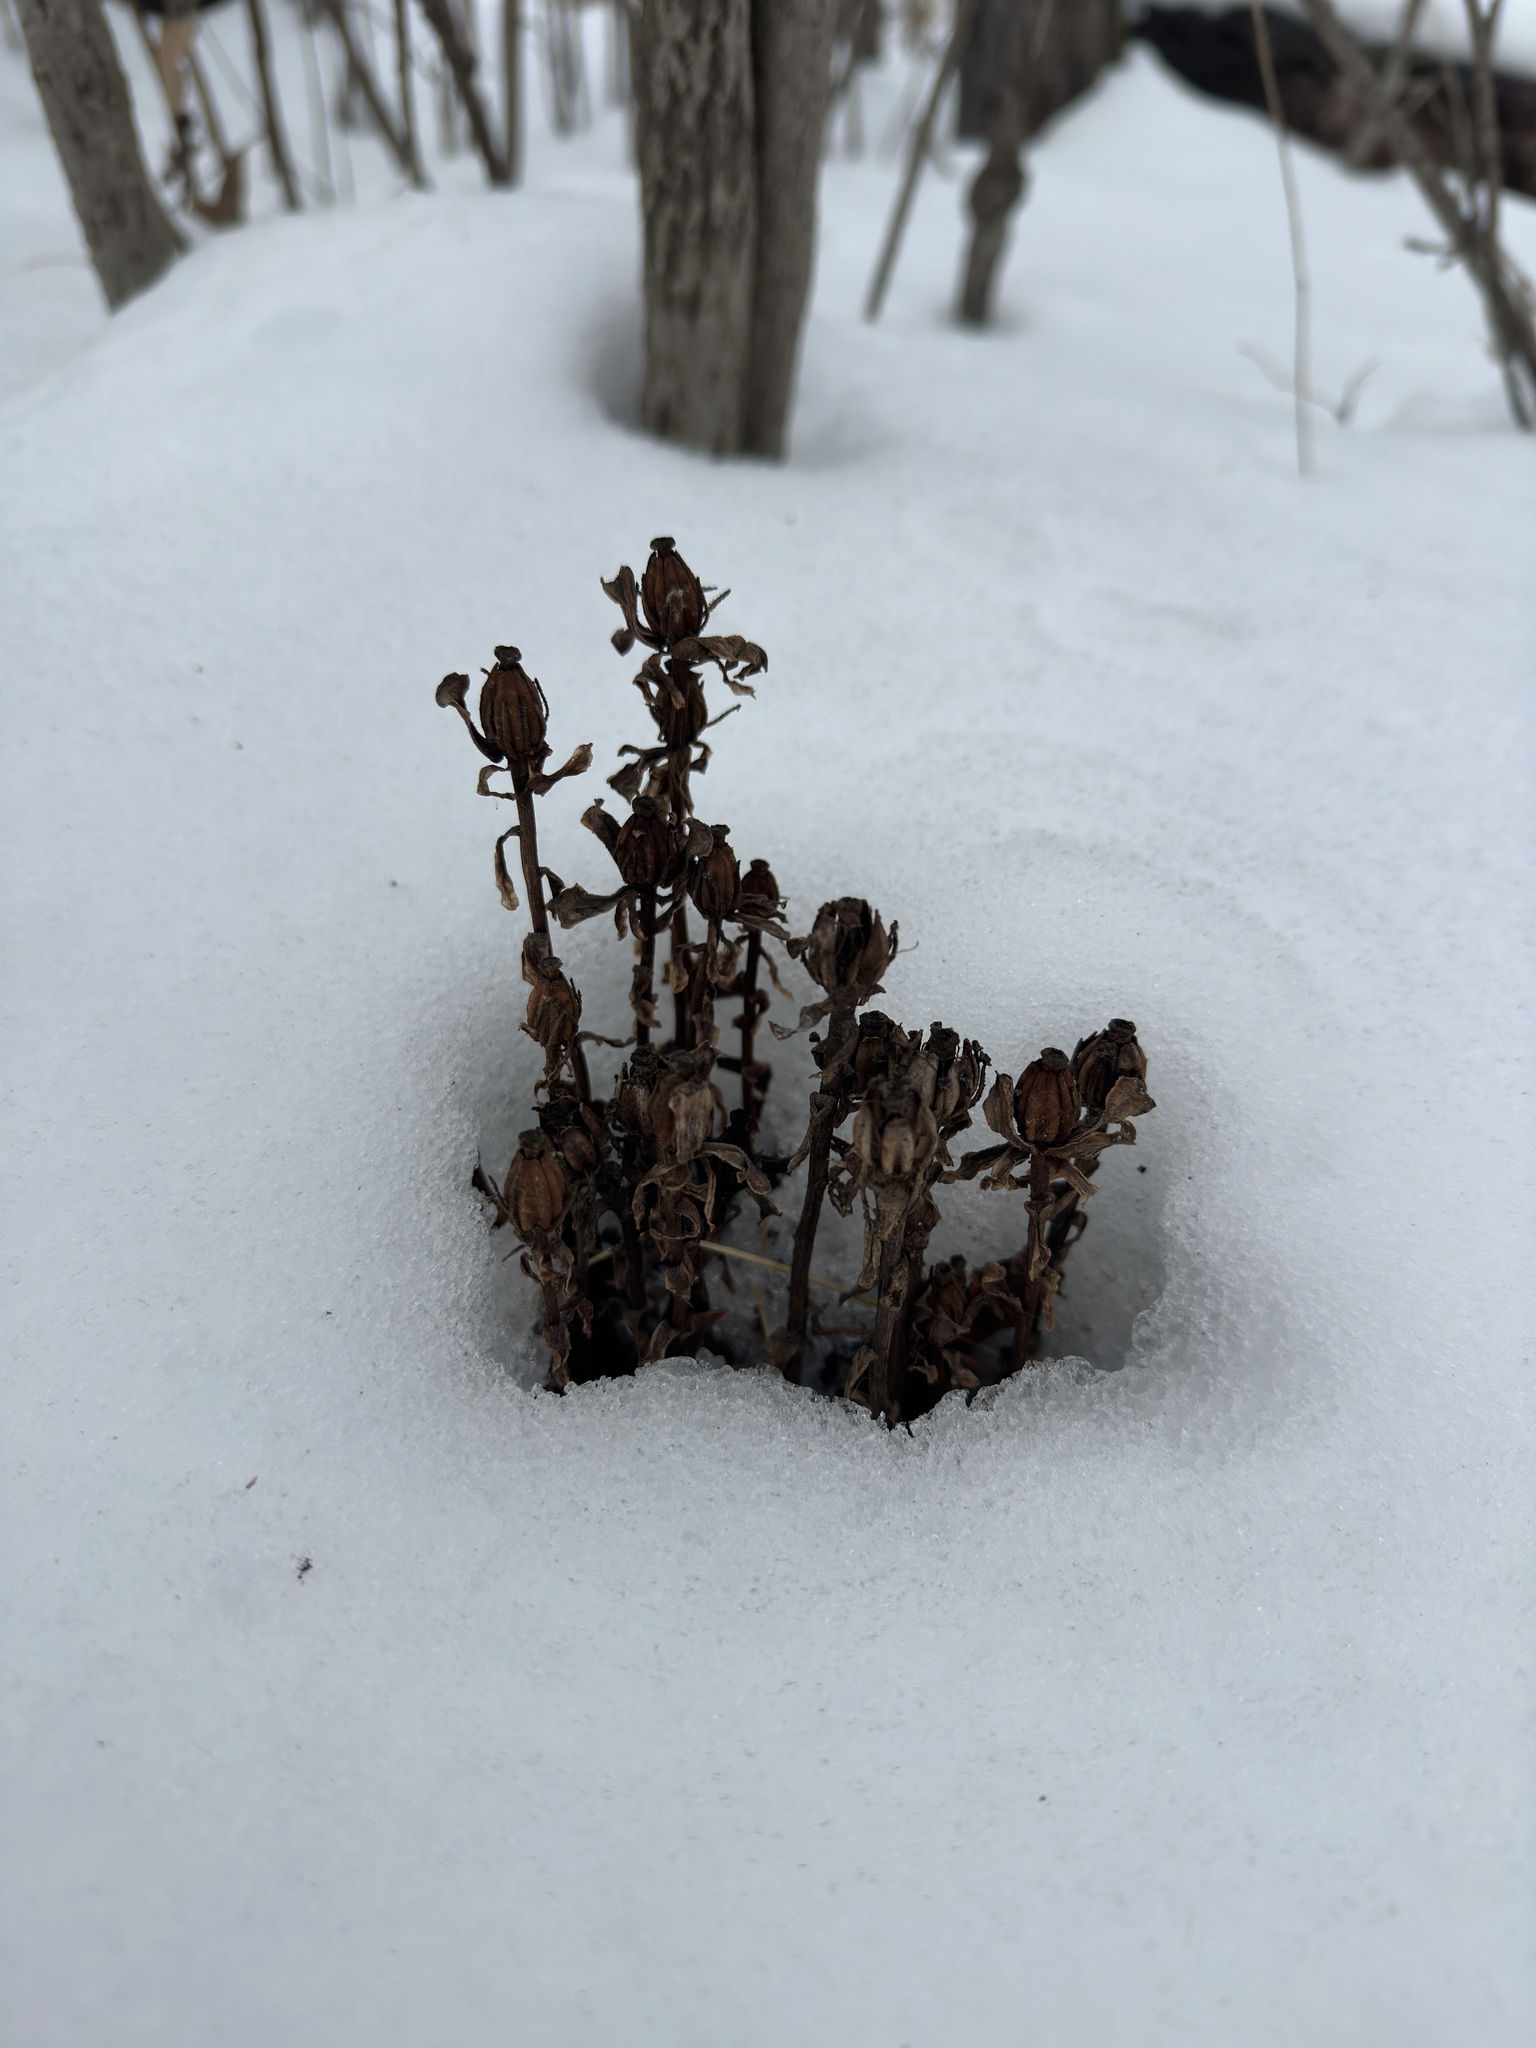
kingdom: Plantae
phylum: Tracheophyta
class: Magnoliopsida
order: Ericales
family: Ericaceae
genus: Monotropa
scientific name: Monotropa uniflora
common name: Convulsion root
